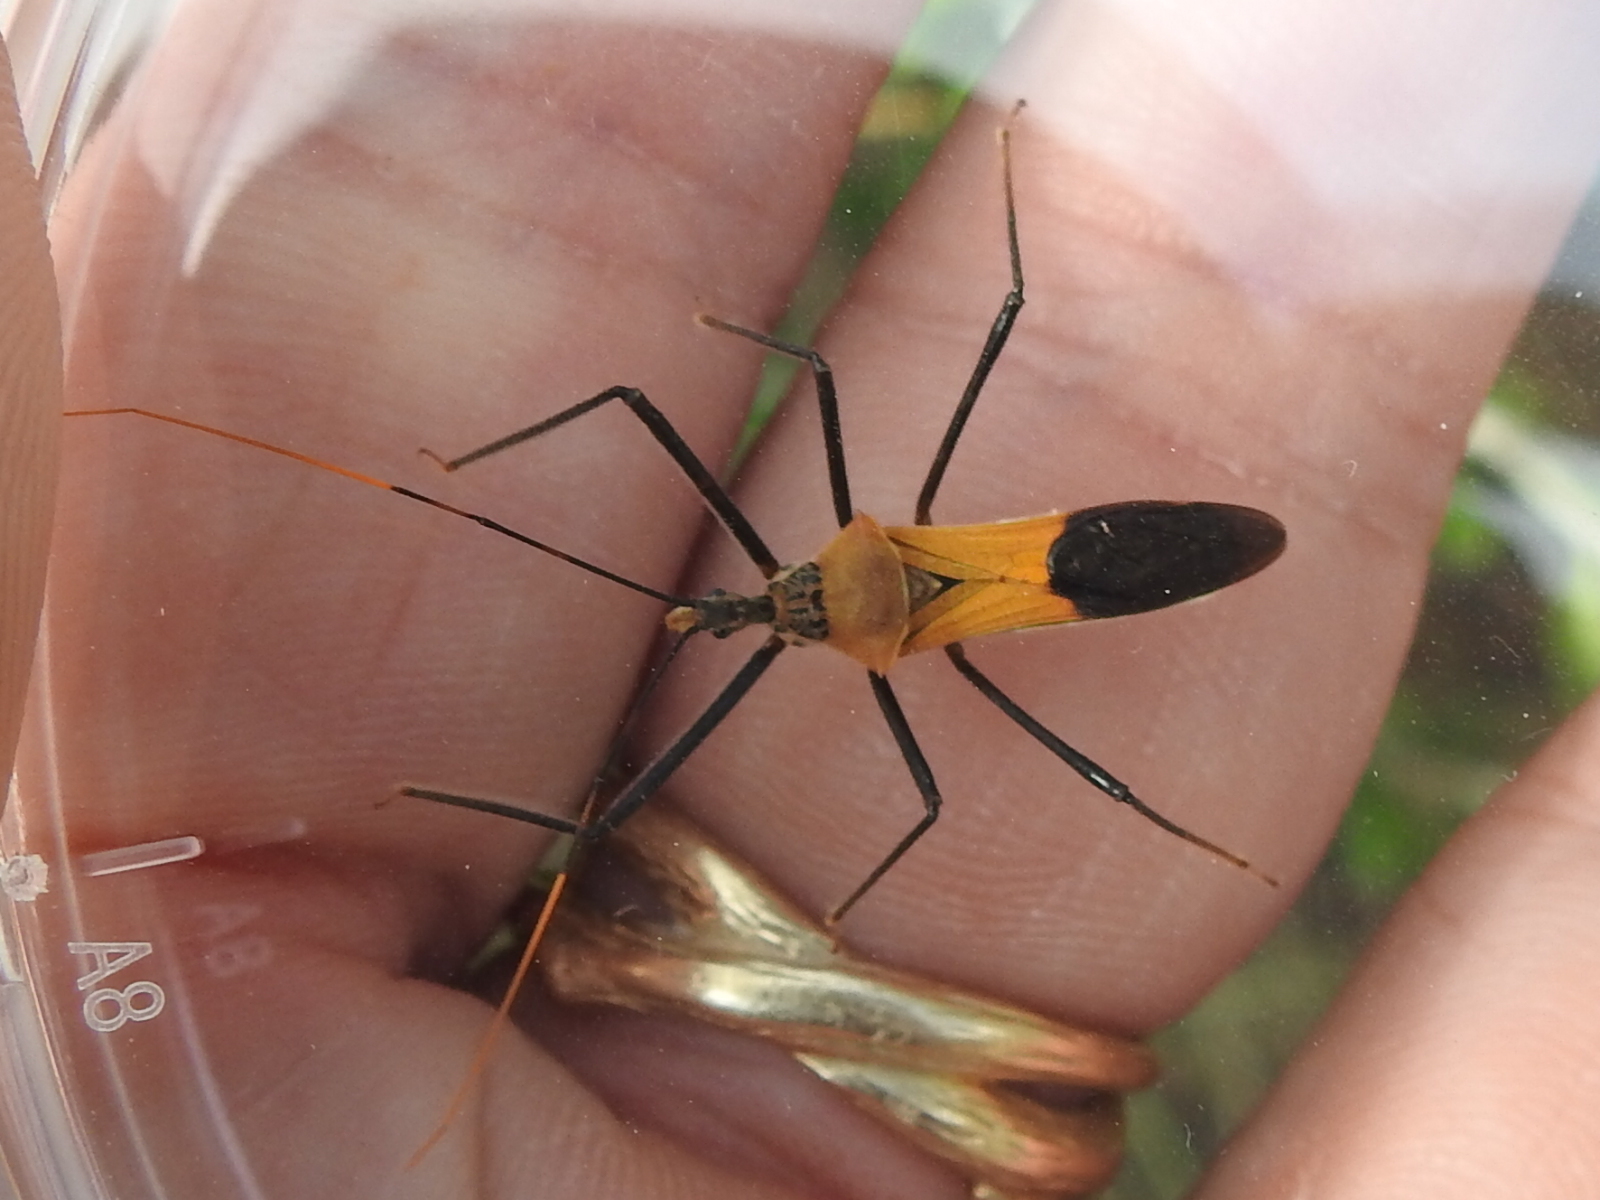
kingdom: Animalia
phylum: Arthropoda
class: Insecta
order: Hemiptera
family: Reduviidae
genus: Zelus
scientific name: Zelus janus
